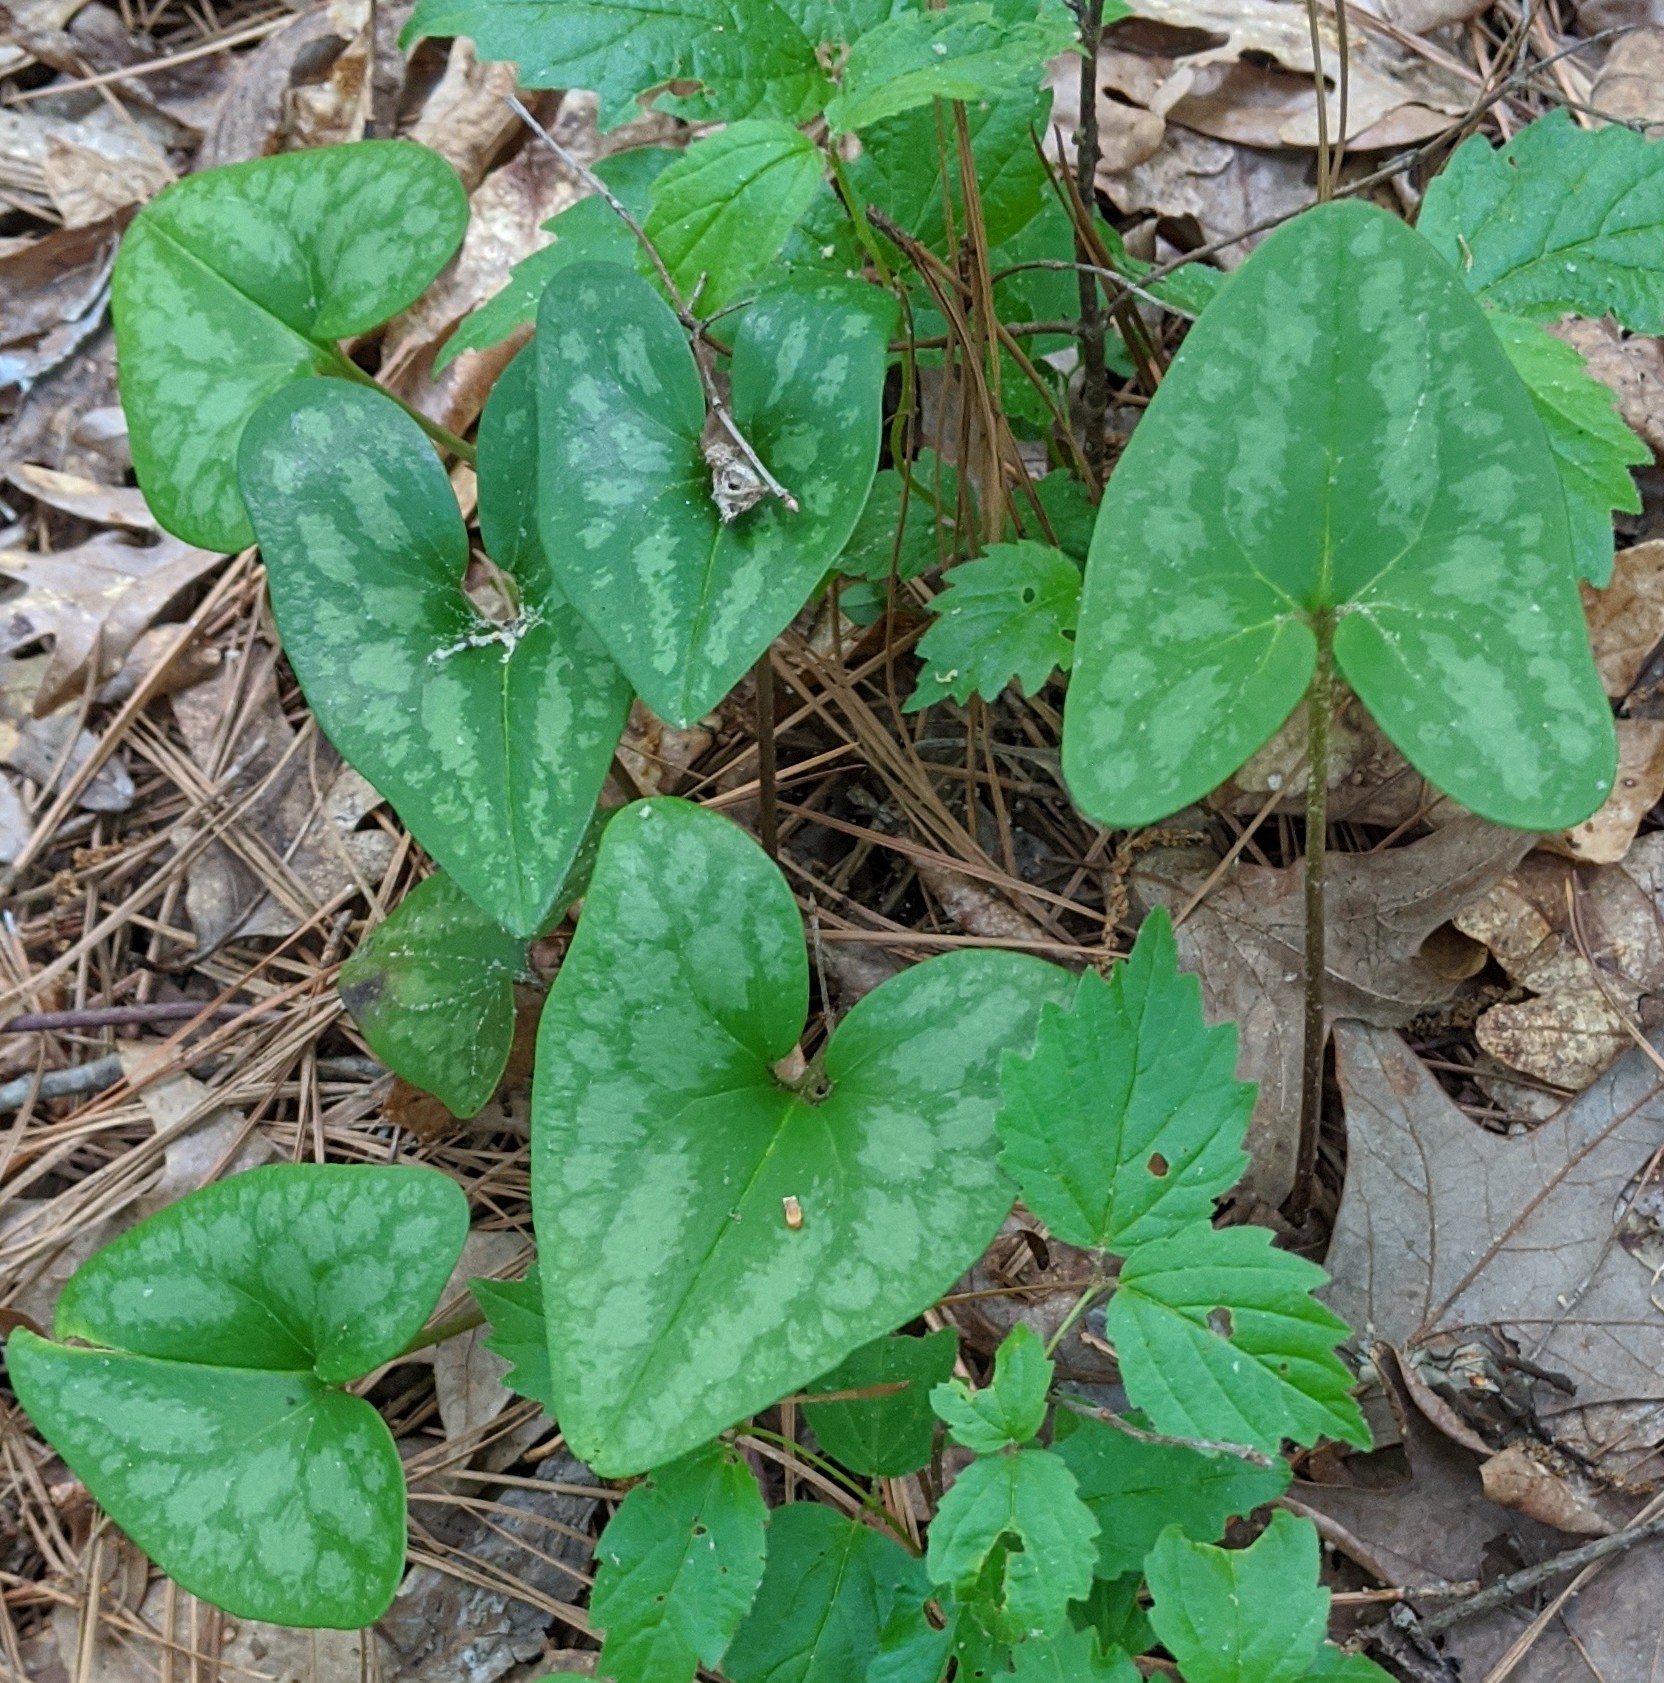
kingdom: Plantae
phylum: Tracheophyta
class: Magnoliopsida
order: Piperales
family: Aristolochiaceae
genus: Hexastylis
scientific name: Hexastylis arifolia
